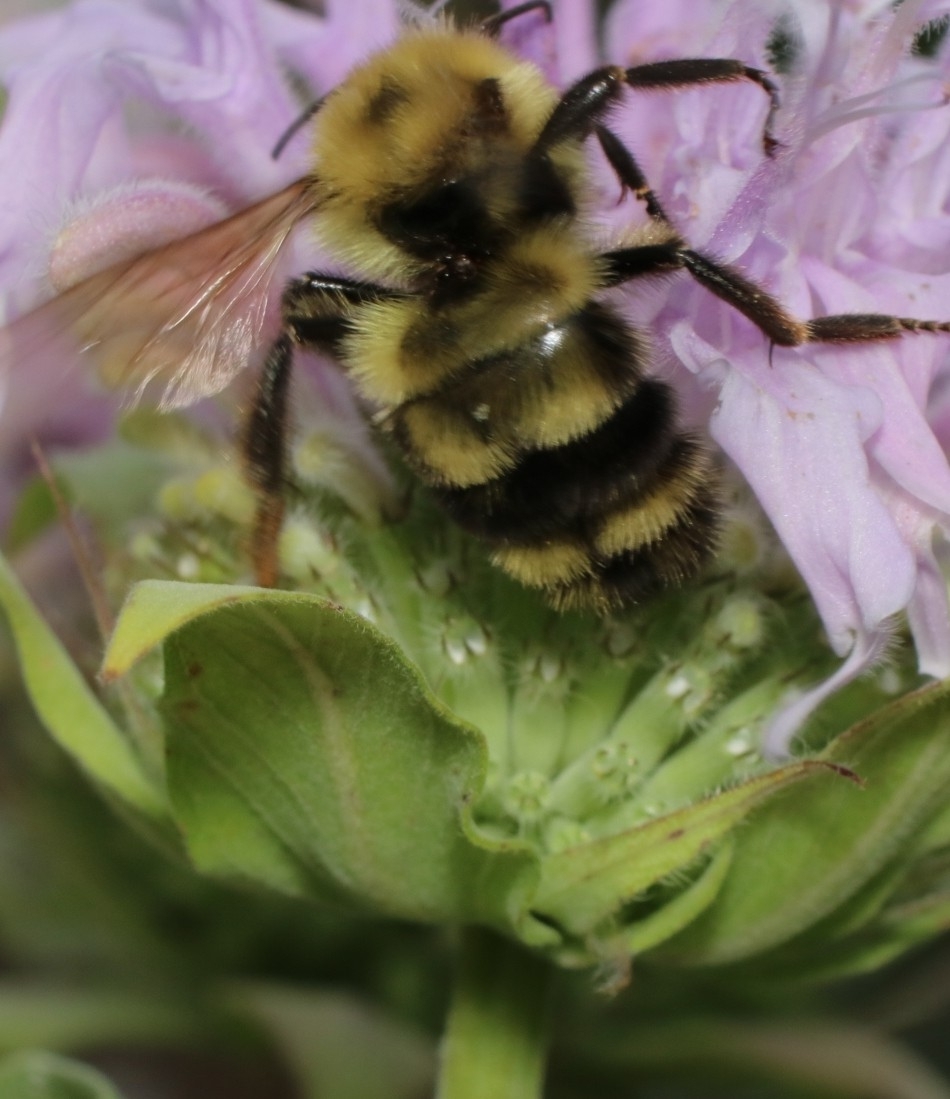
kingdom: Animalia
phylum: Arthropoda
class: Insecta
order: Hymenoptera
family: Apidae
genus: Bombus
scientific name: Bombus bimaculatus
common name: Two-spotted bumble bee
